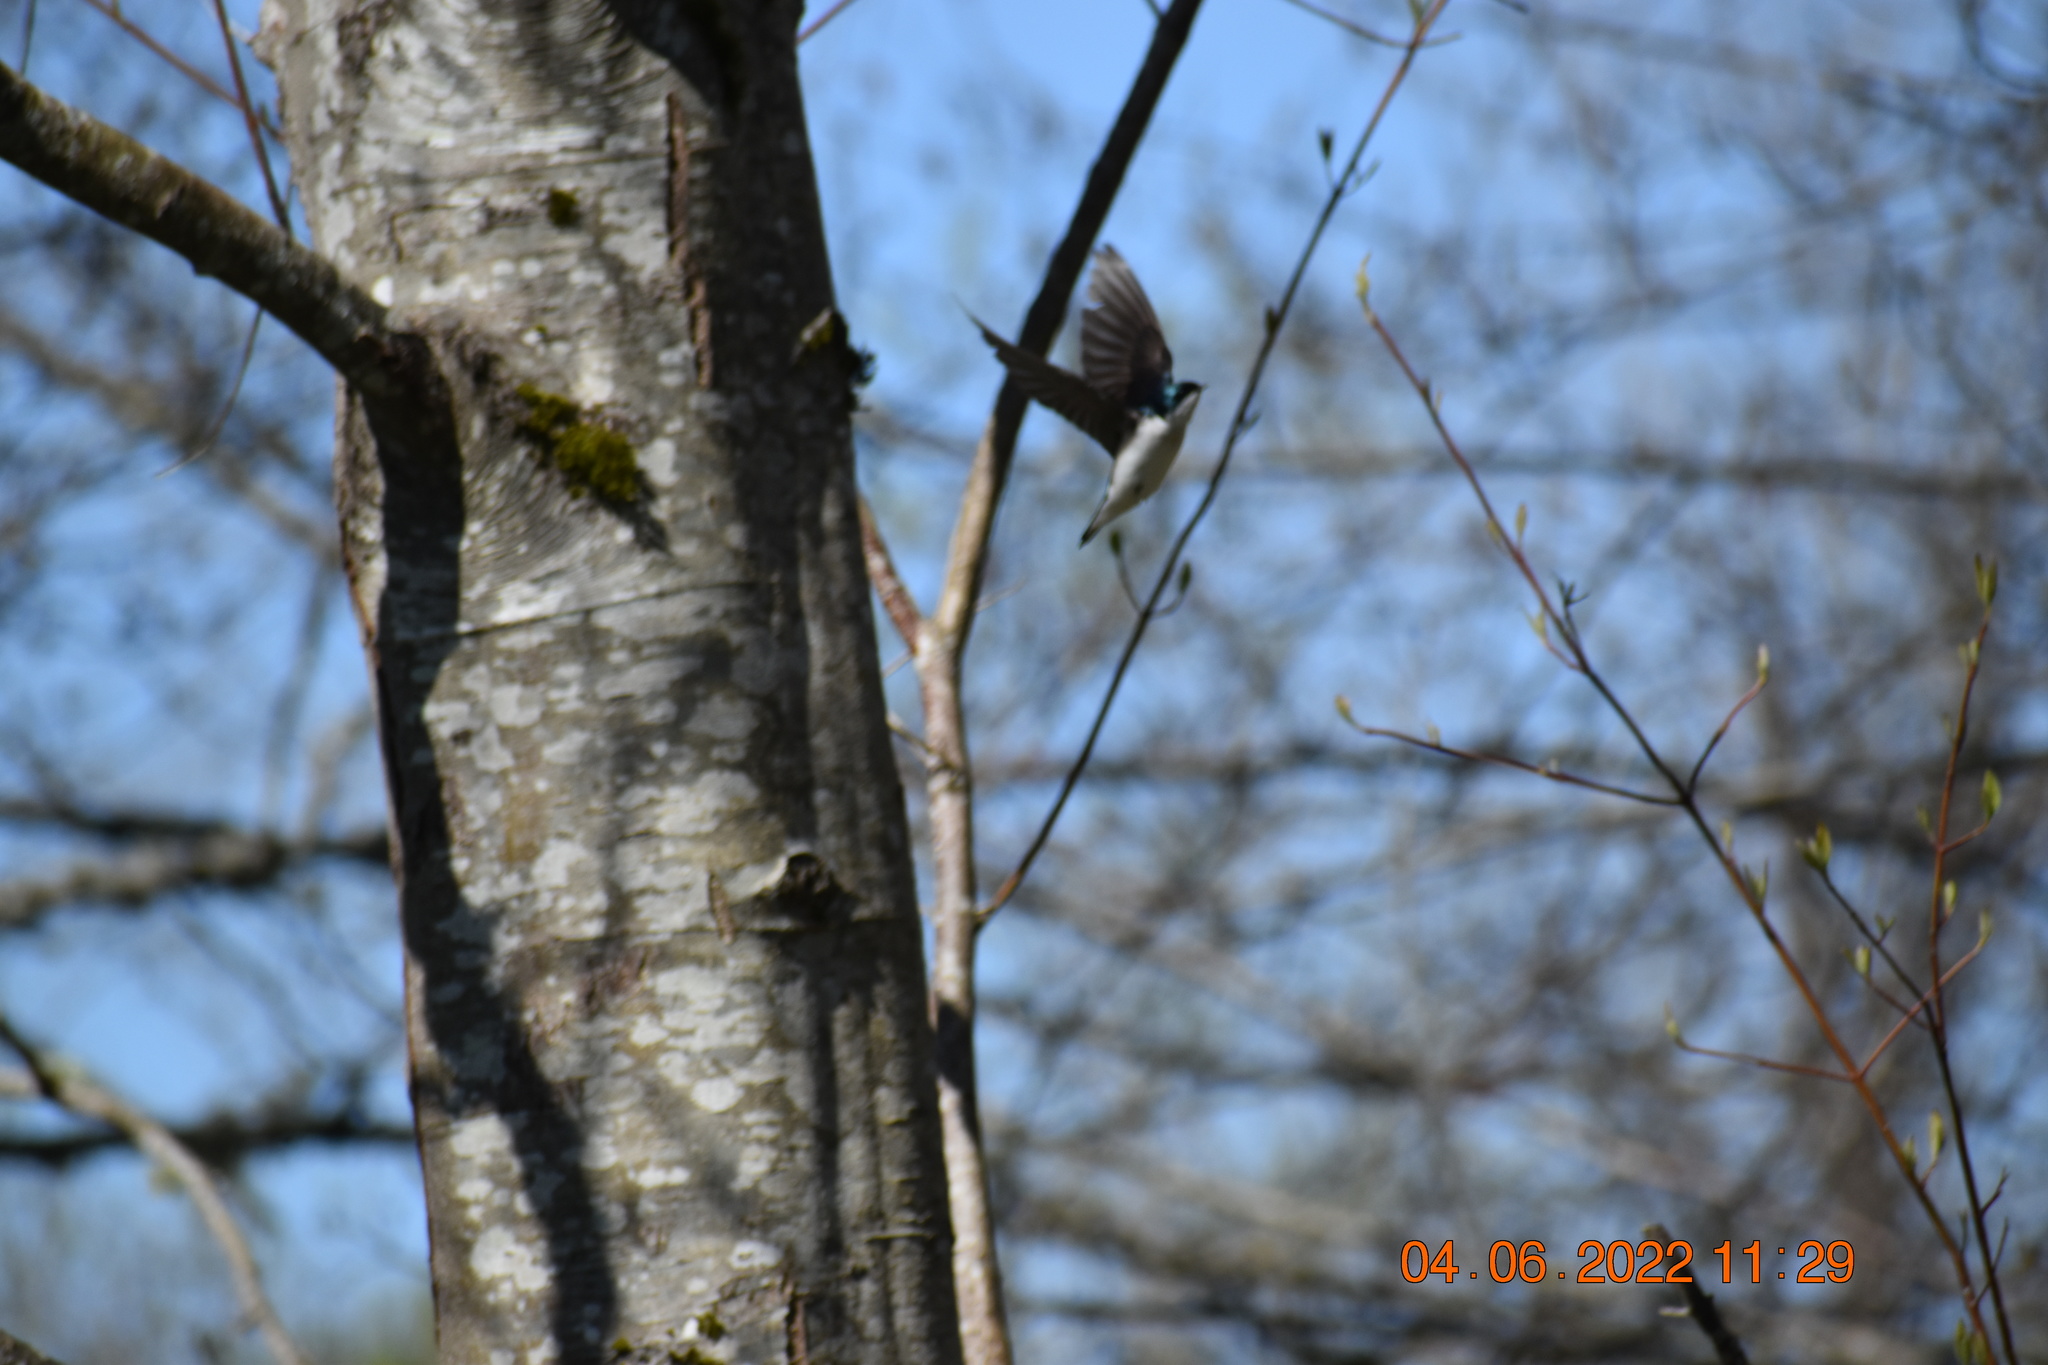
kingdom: Animalia
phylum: Chordata
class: Aves
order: Passeriformes
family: Hirundinidae
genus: Tachycineta
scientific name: Tachycineta bicolor
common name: Tree swallow
